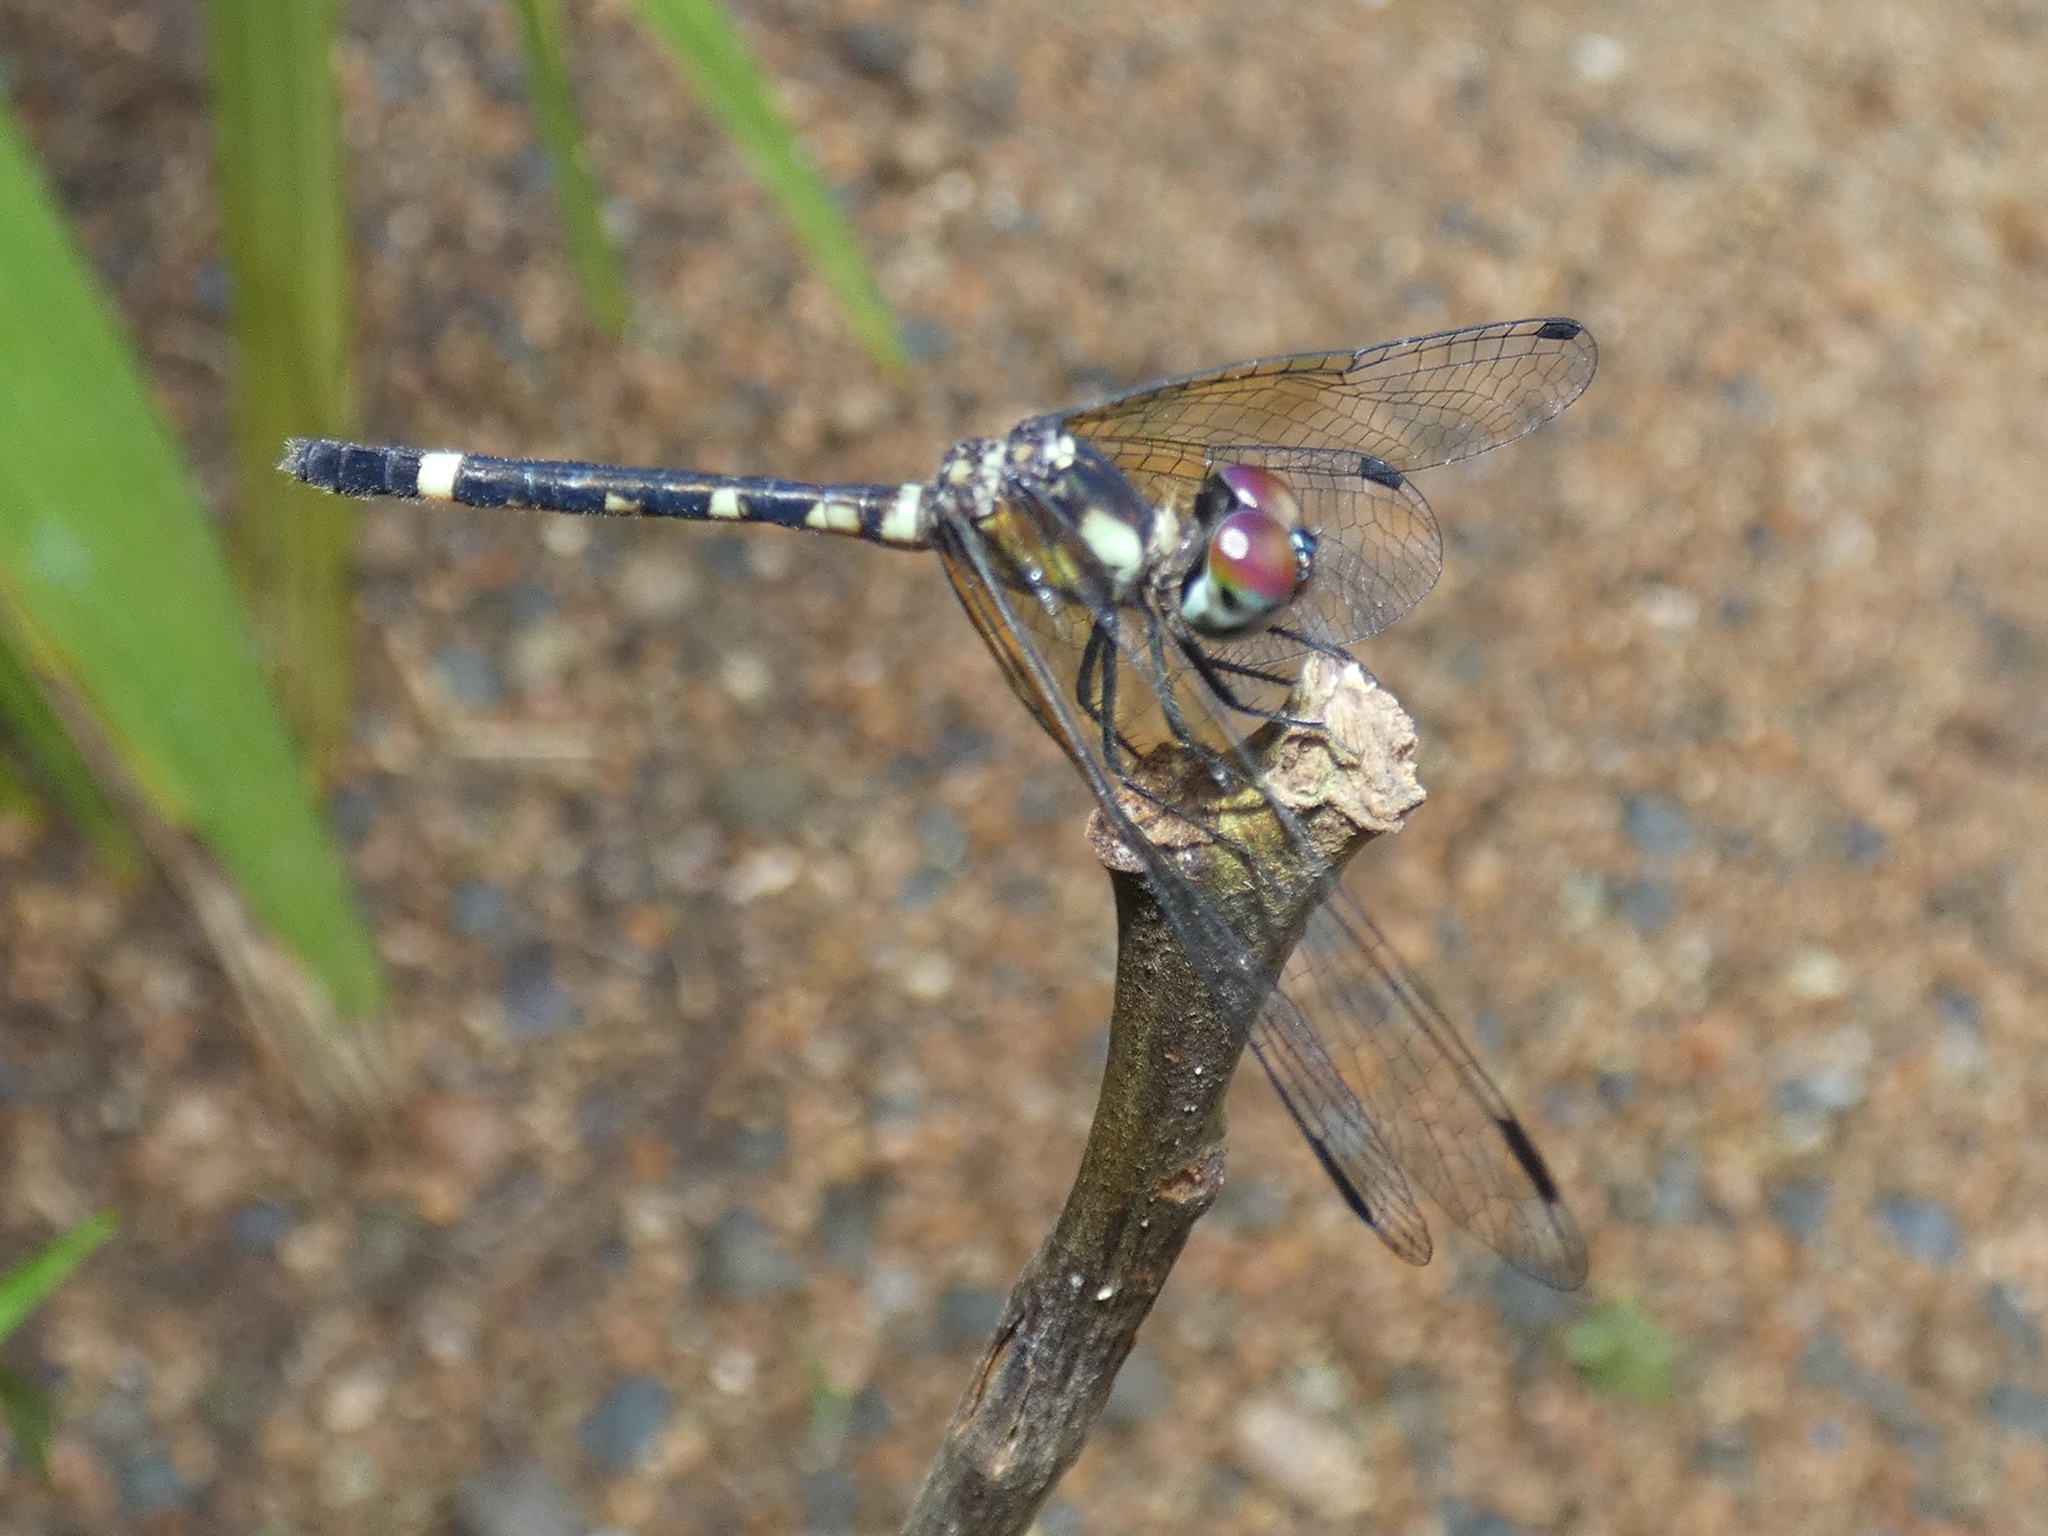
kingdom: Animalia
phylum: Arthropoda
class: Insecta
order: Odonata
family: Libellulidae
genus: Tetrathemis
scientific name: Tetrathemis irregularis
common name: Elf
